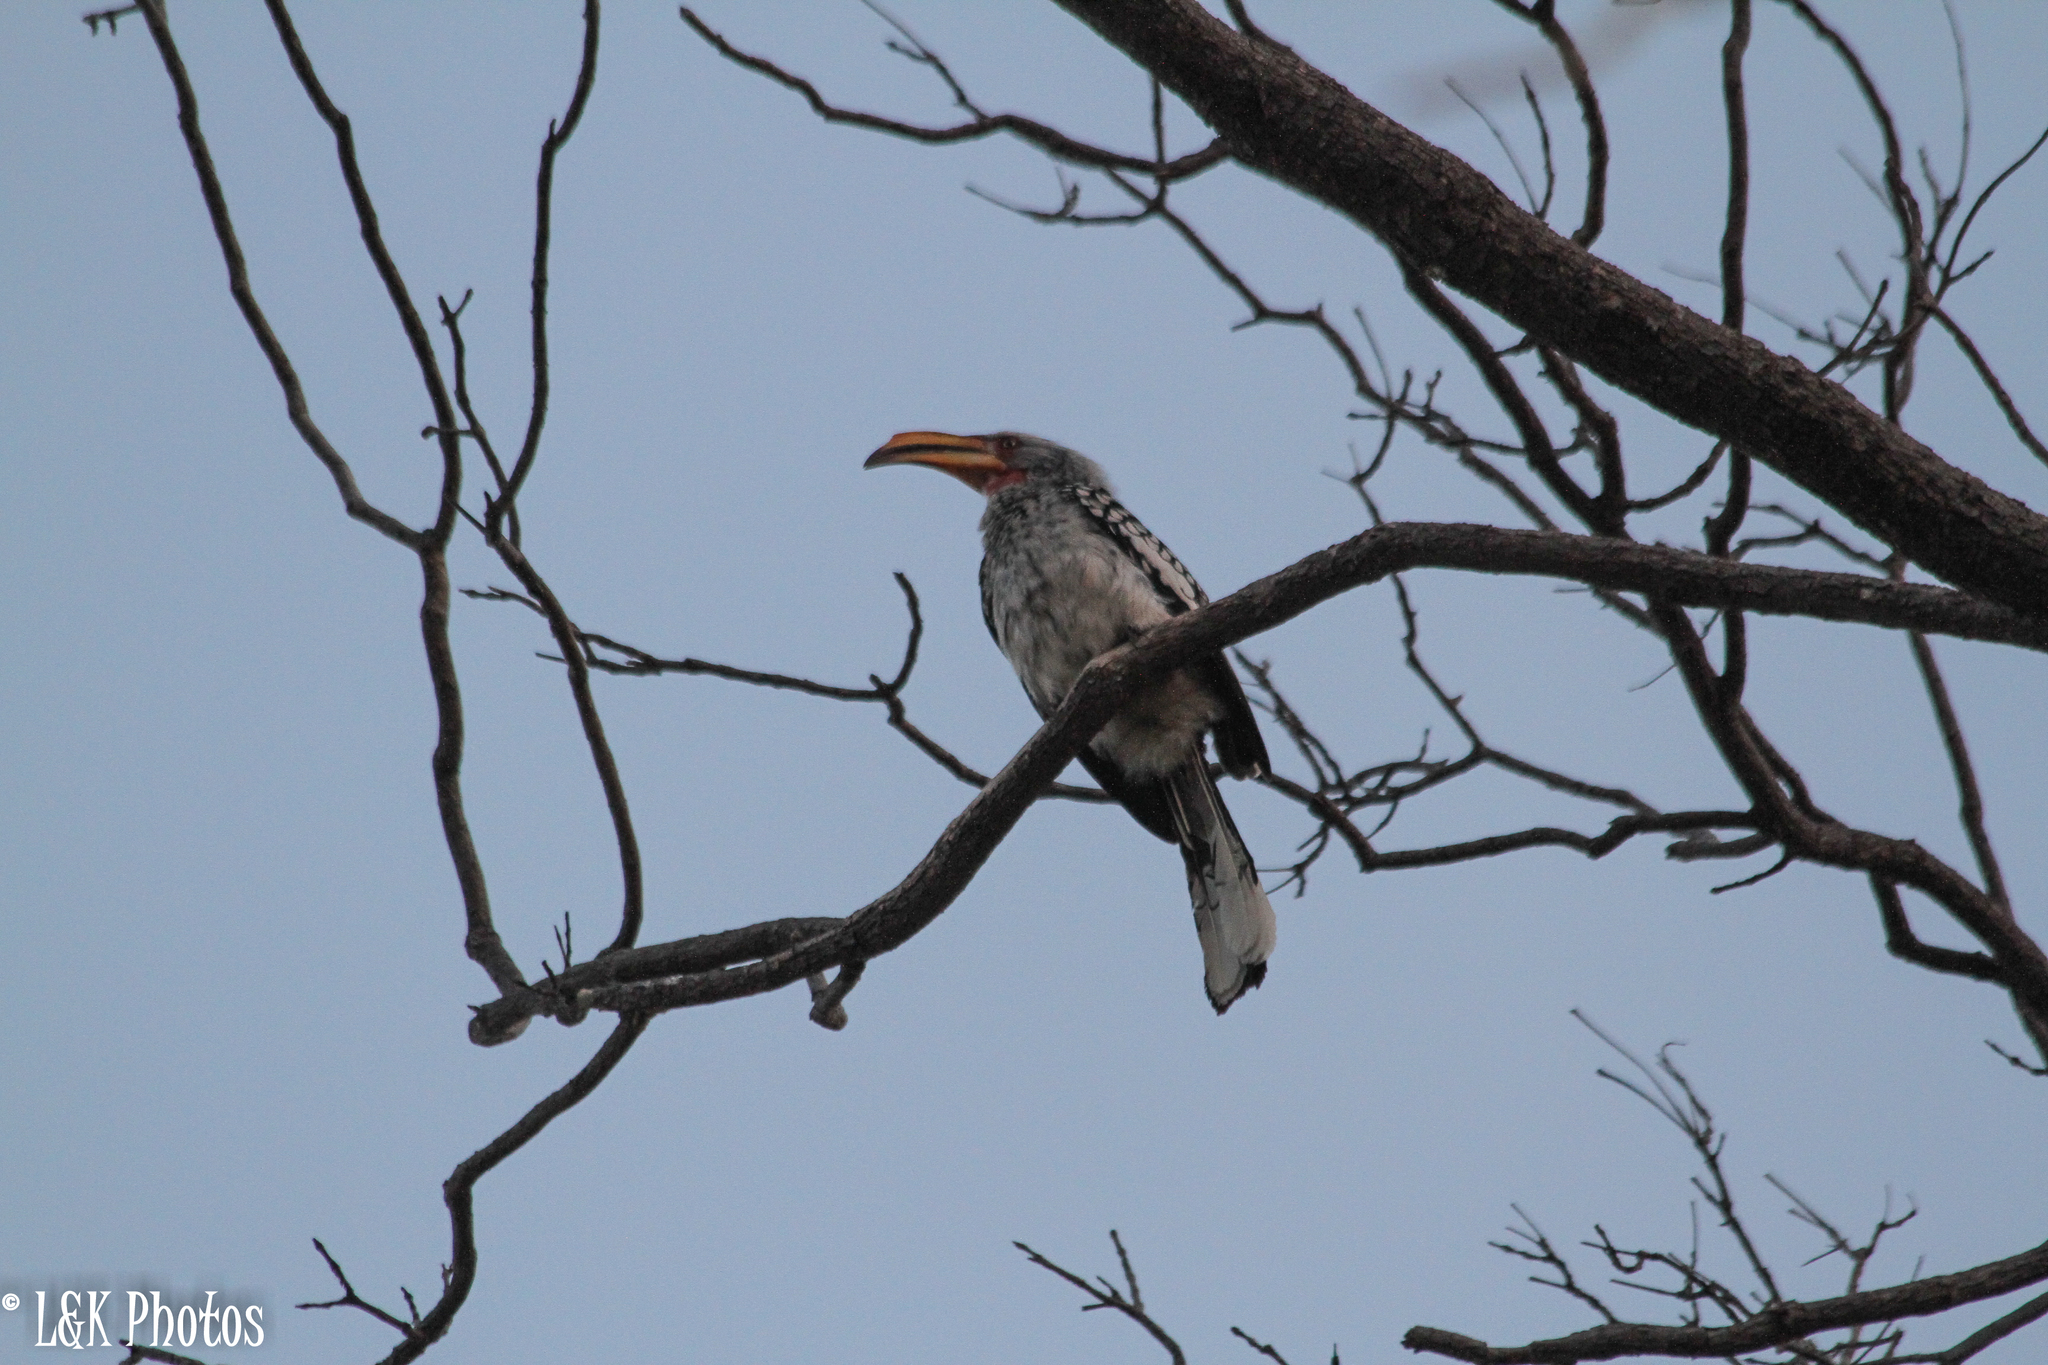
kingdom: Animalia
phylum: Chordata
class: Aves
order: Bucerotiformes
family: Bucerotidae
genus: Tockus
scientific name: Tockus leucomelas
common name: Southern yellow-billed hornbill
